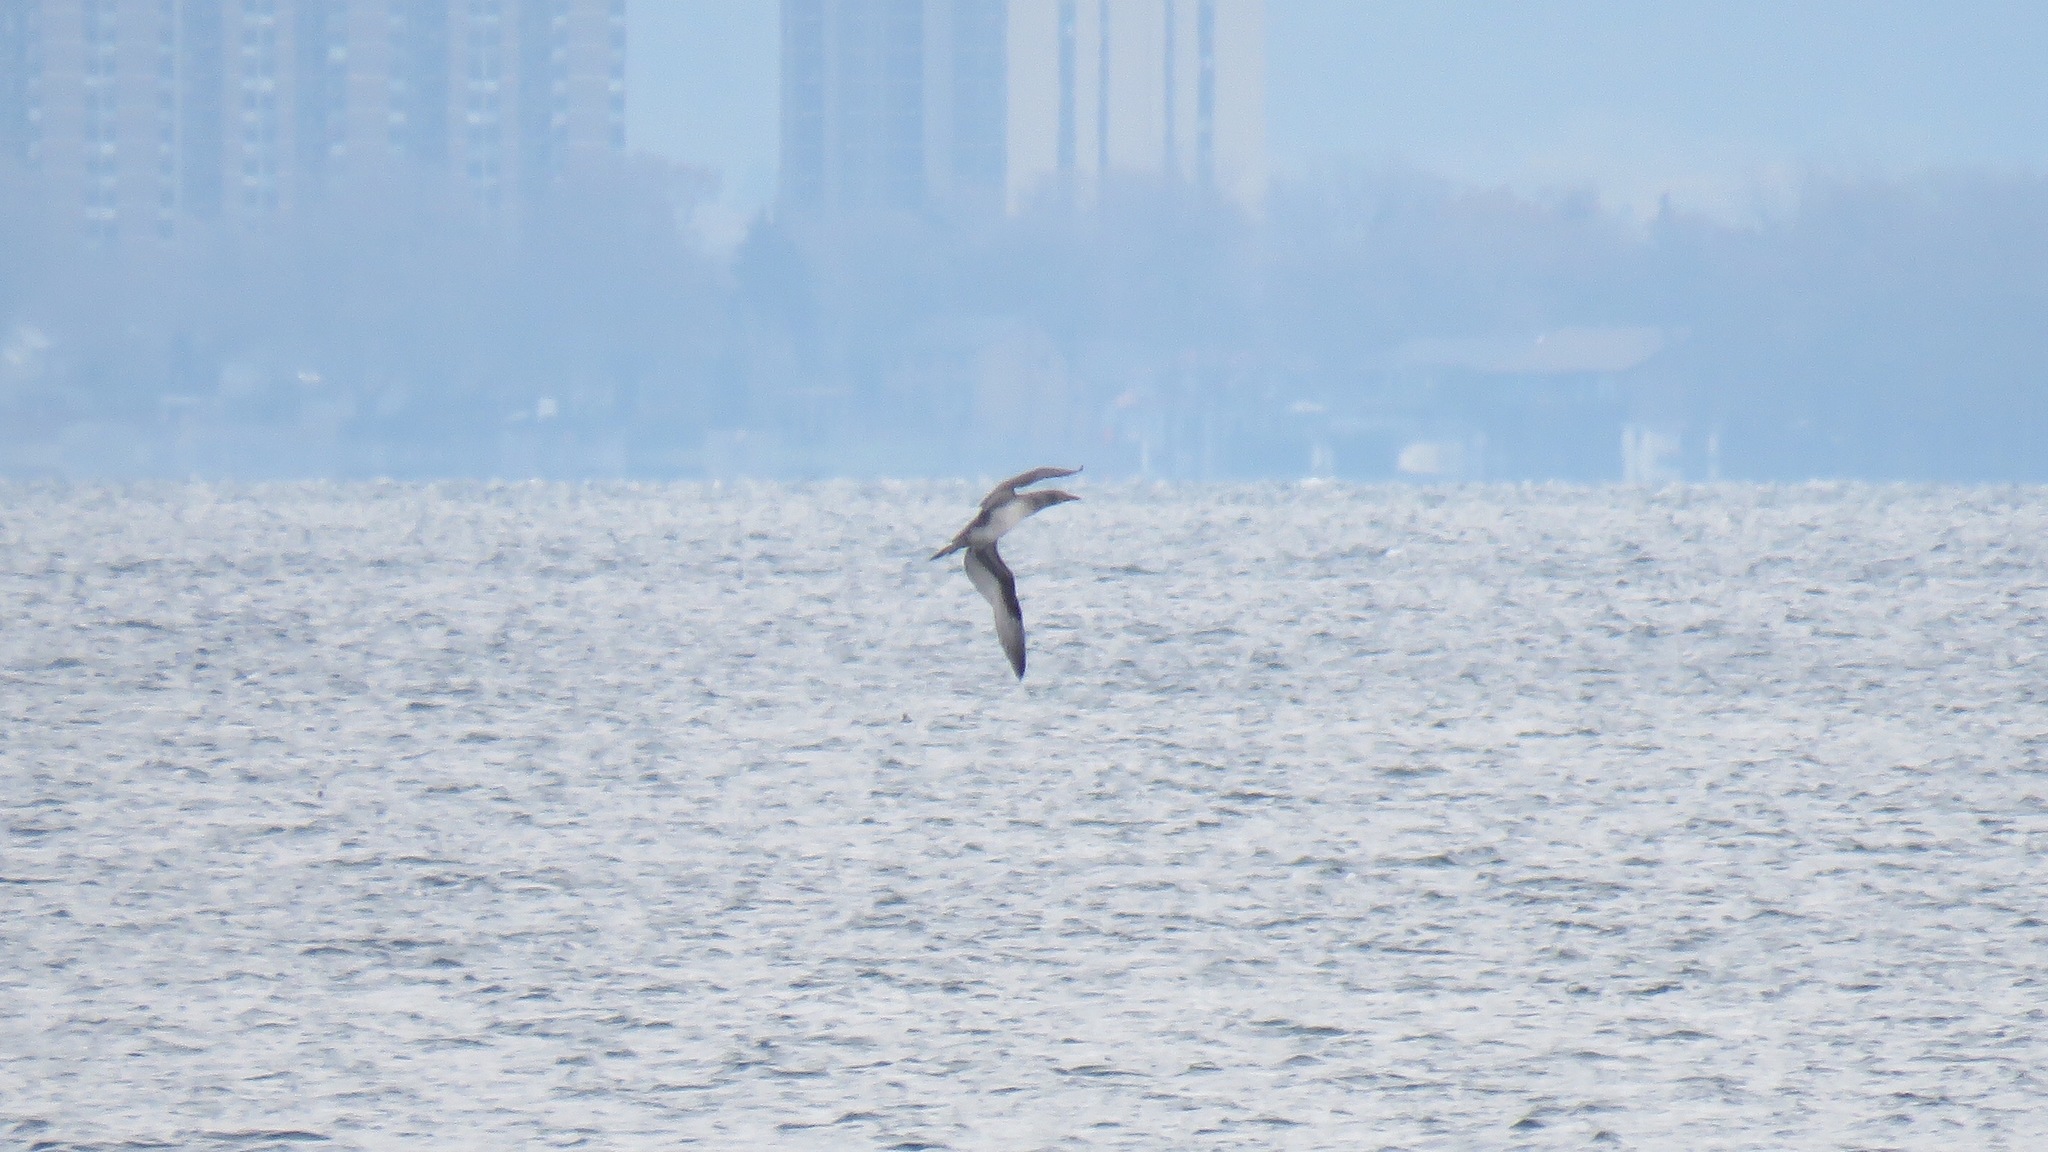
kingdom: Animalia
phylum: Chordata
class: Aves
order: Suliformes
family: Sulidae
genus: Morus
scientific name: Morus bassanus
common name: Northern gannet
